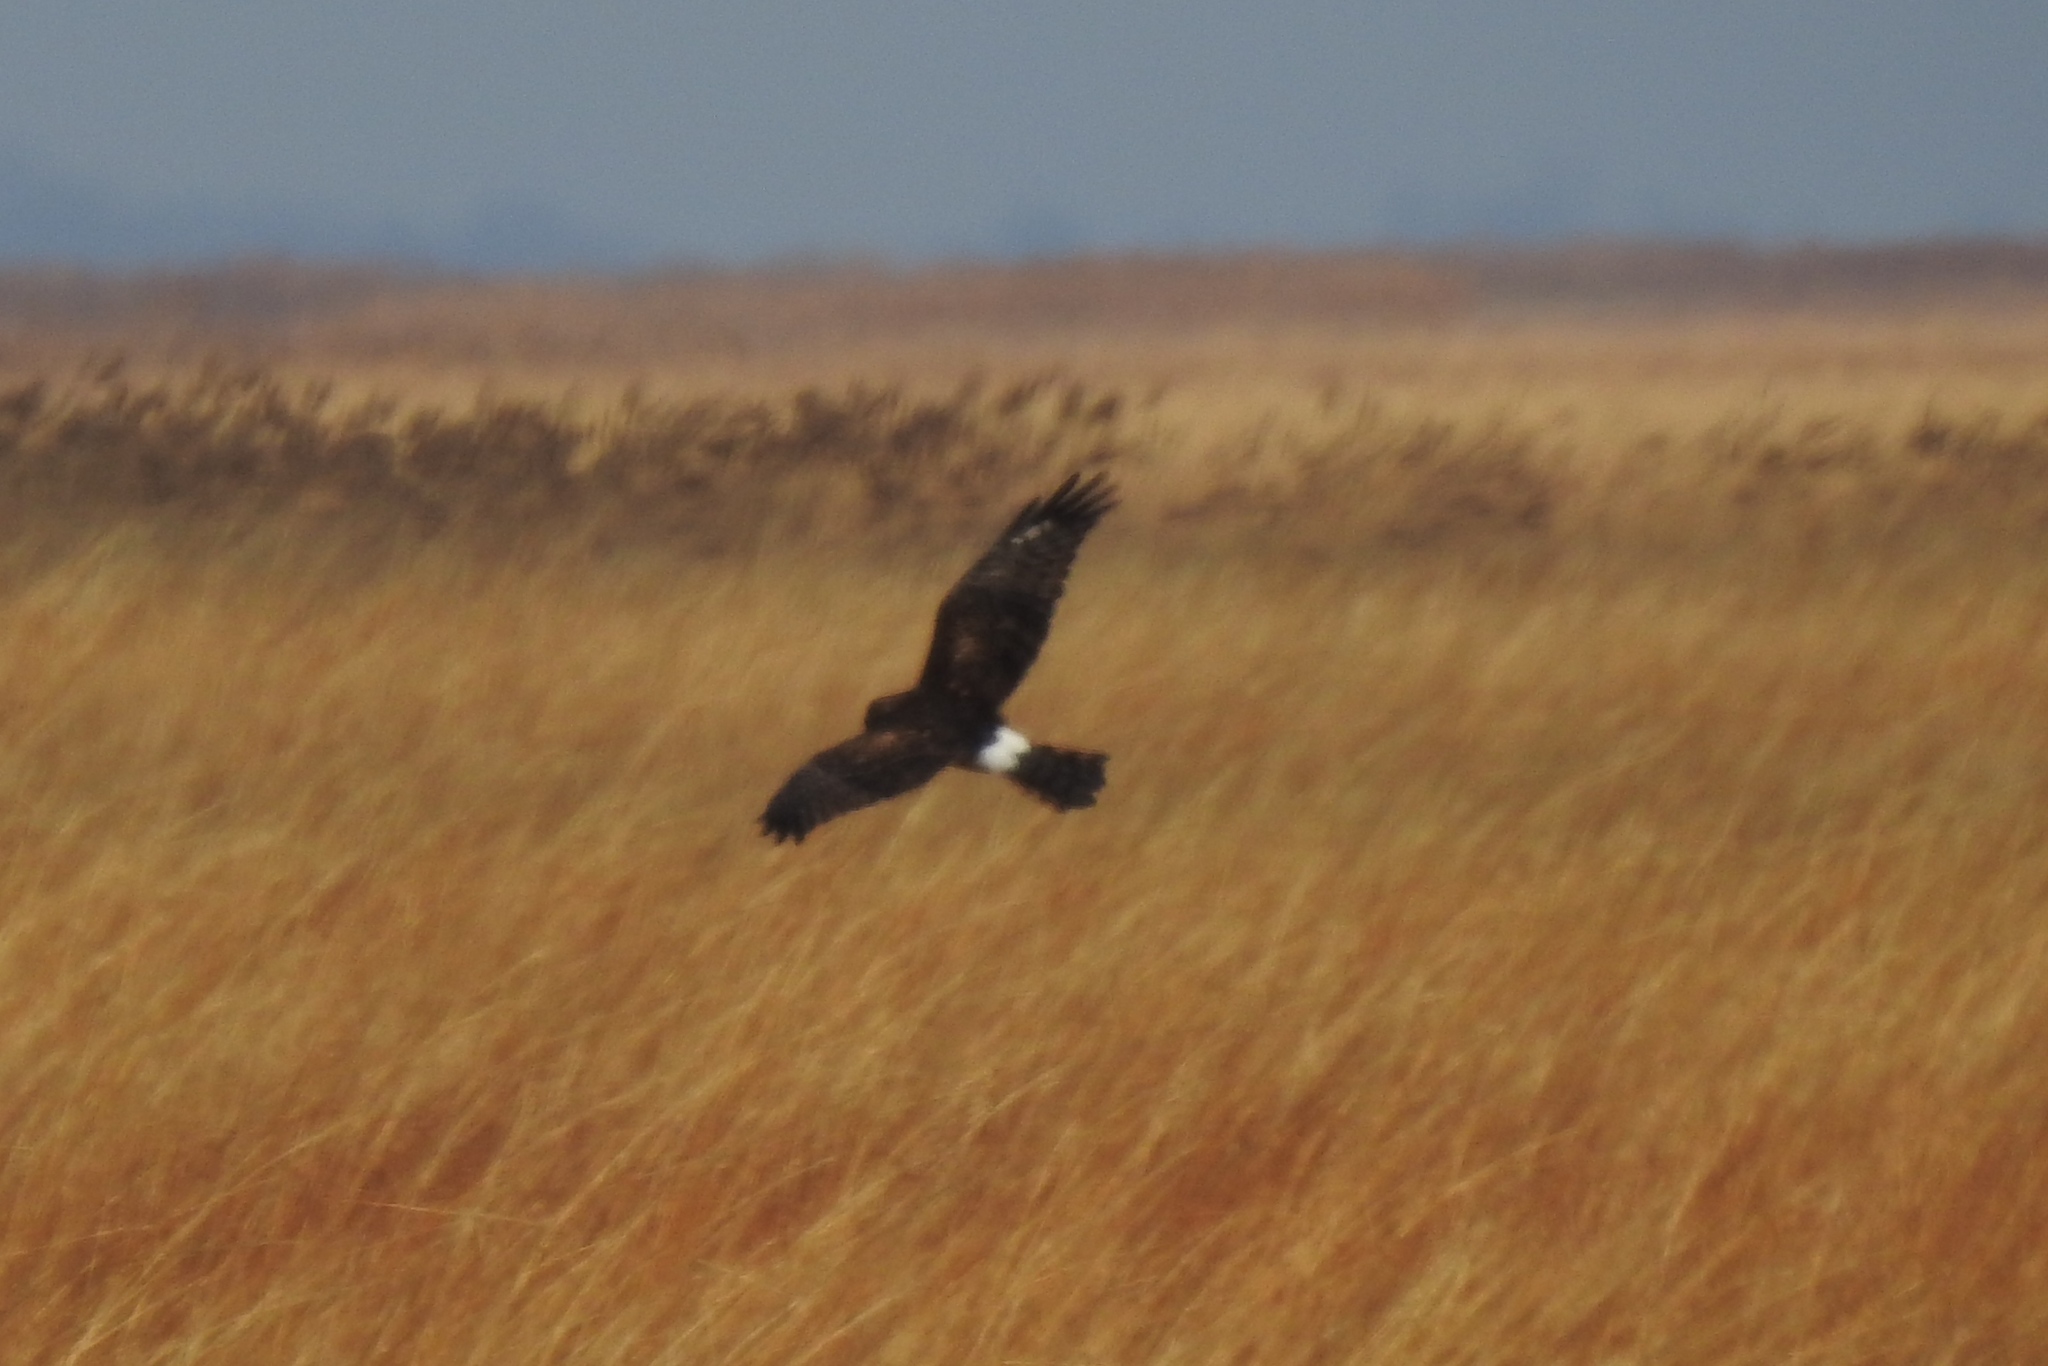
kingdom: Animalia
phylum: Chordata
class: Aves
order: Accipitriformes
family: Accipitridae
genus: Circus
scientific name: Circus cyaneus
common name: Hen harrier
